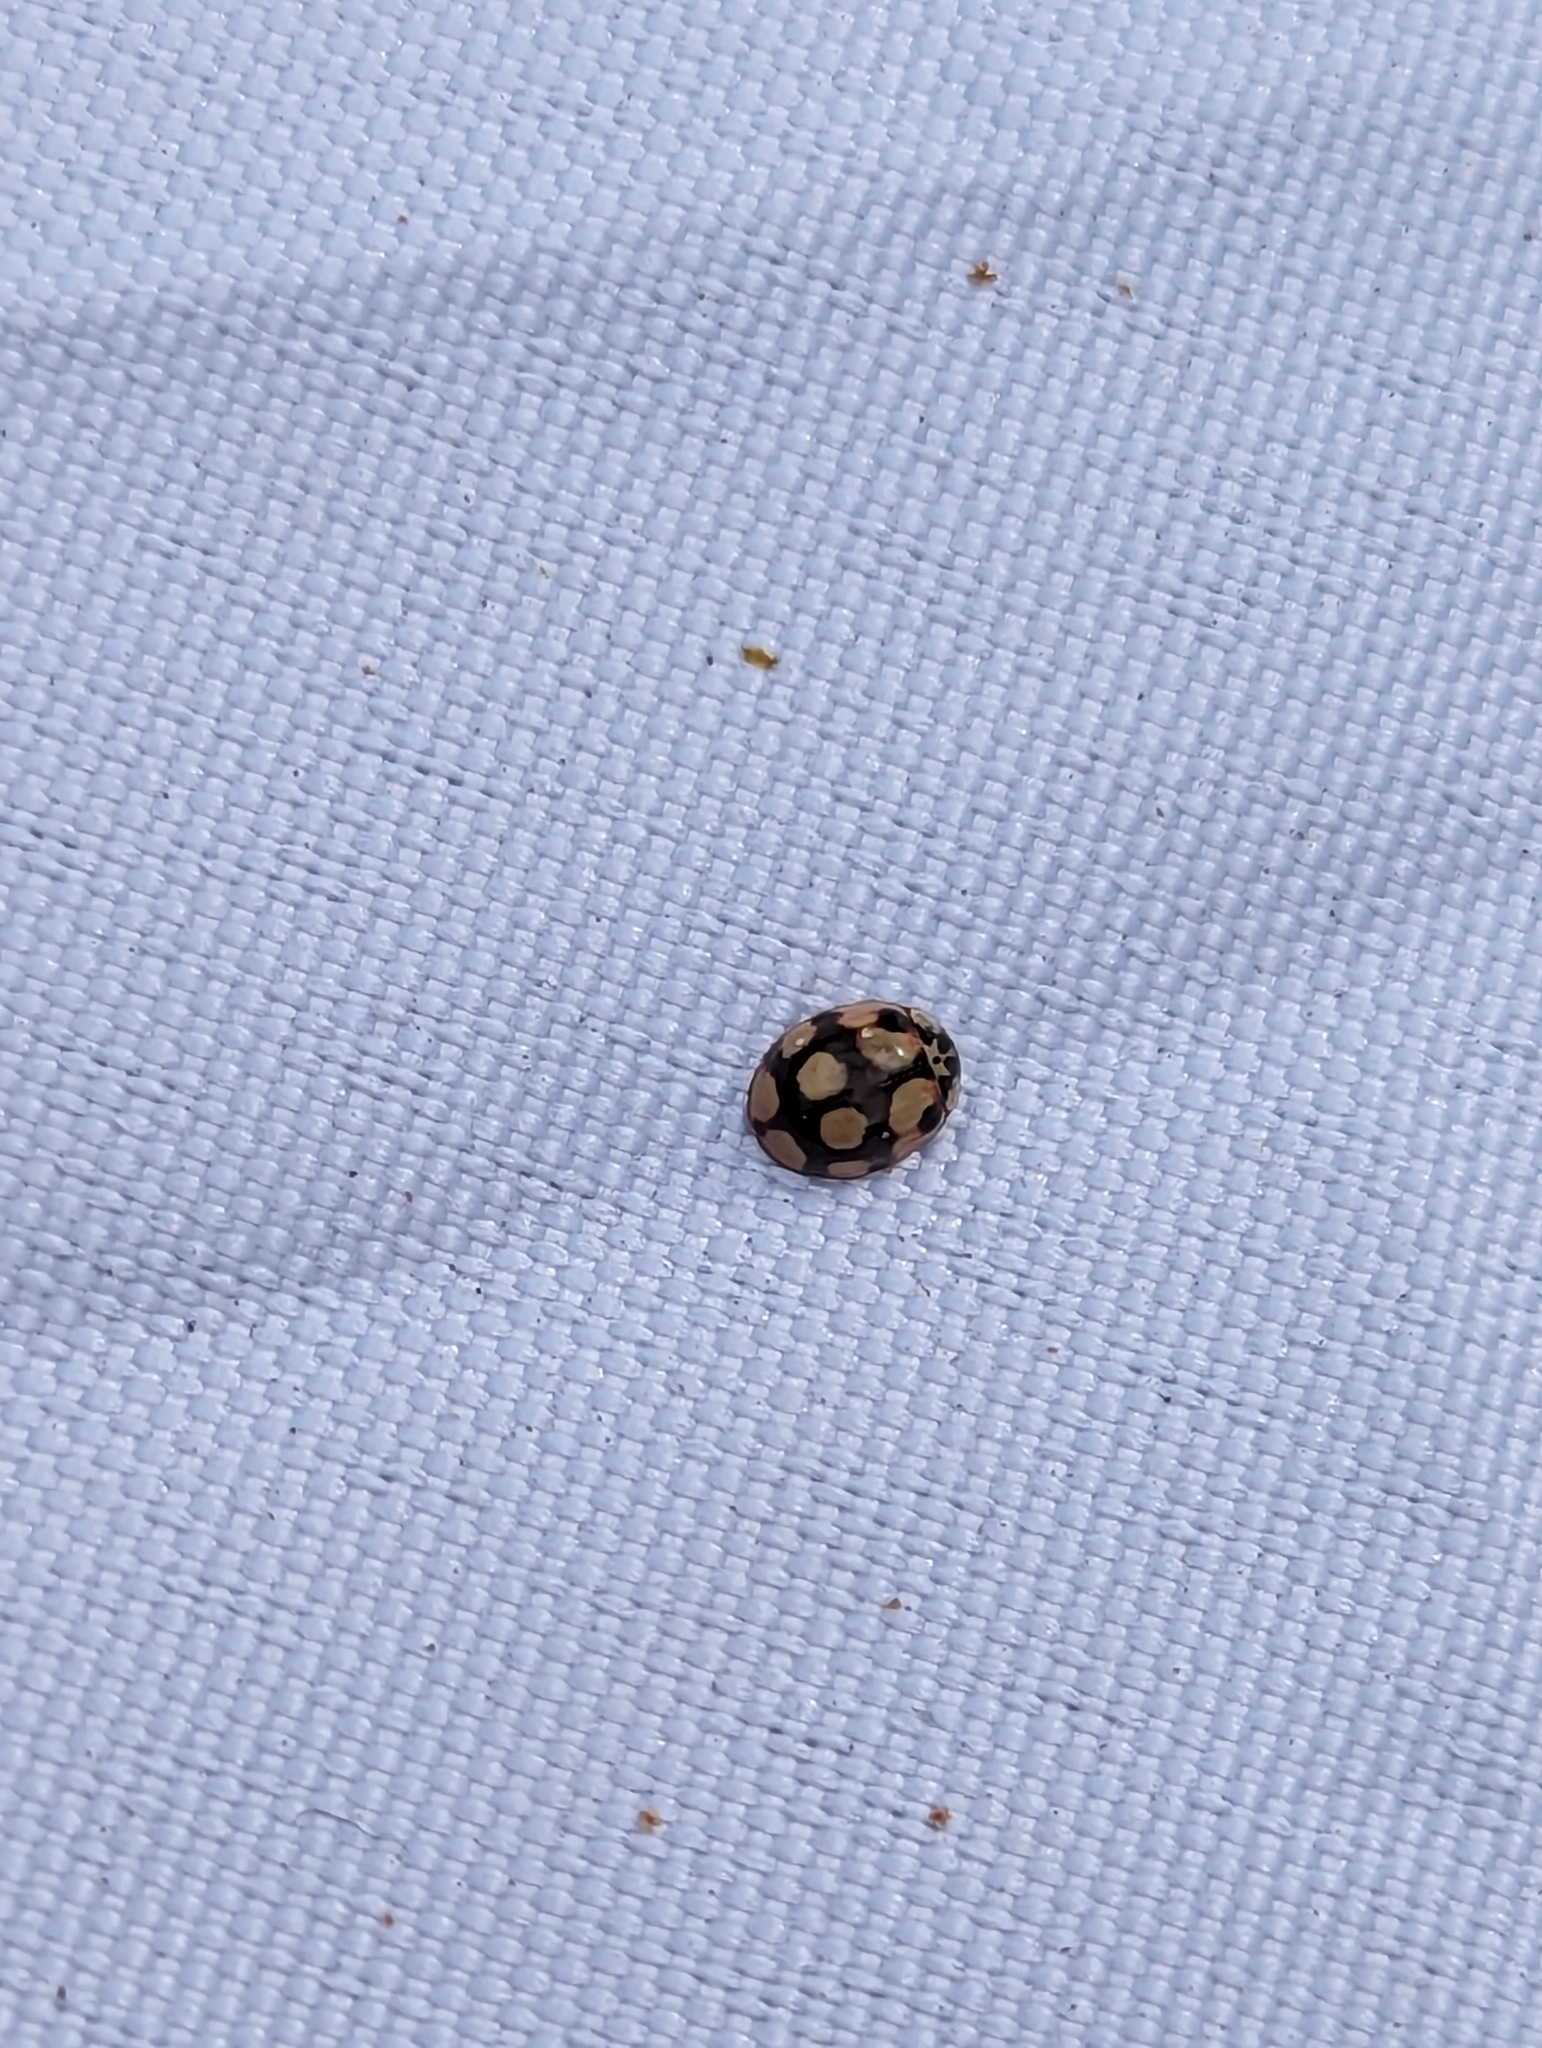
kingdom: Animalia
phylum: Arthropoda
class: Insecta
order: Coleoptera
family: Coccinellidae
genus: Adalia
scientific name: Adalia decempunctata
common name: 10-spot ladybird
